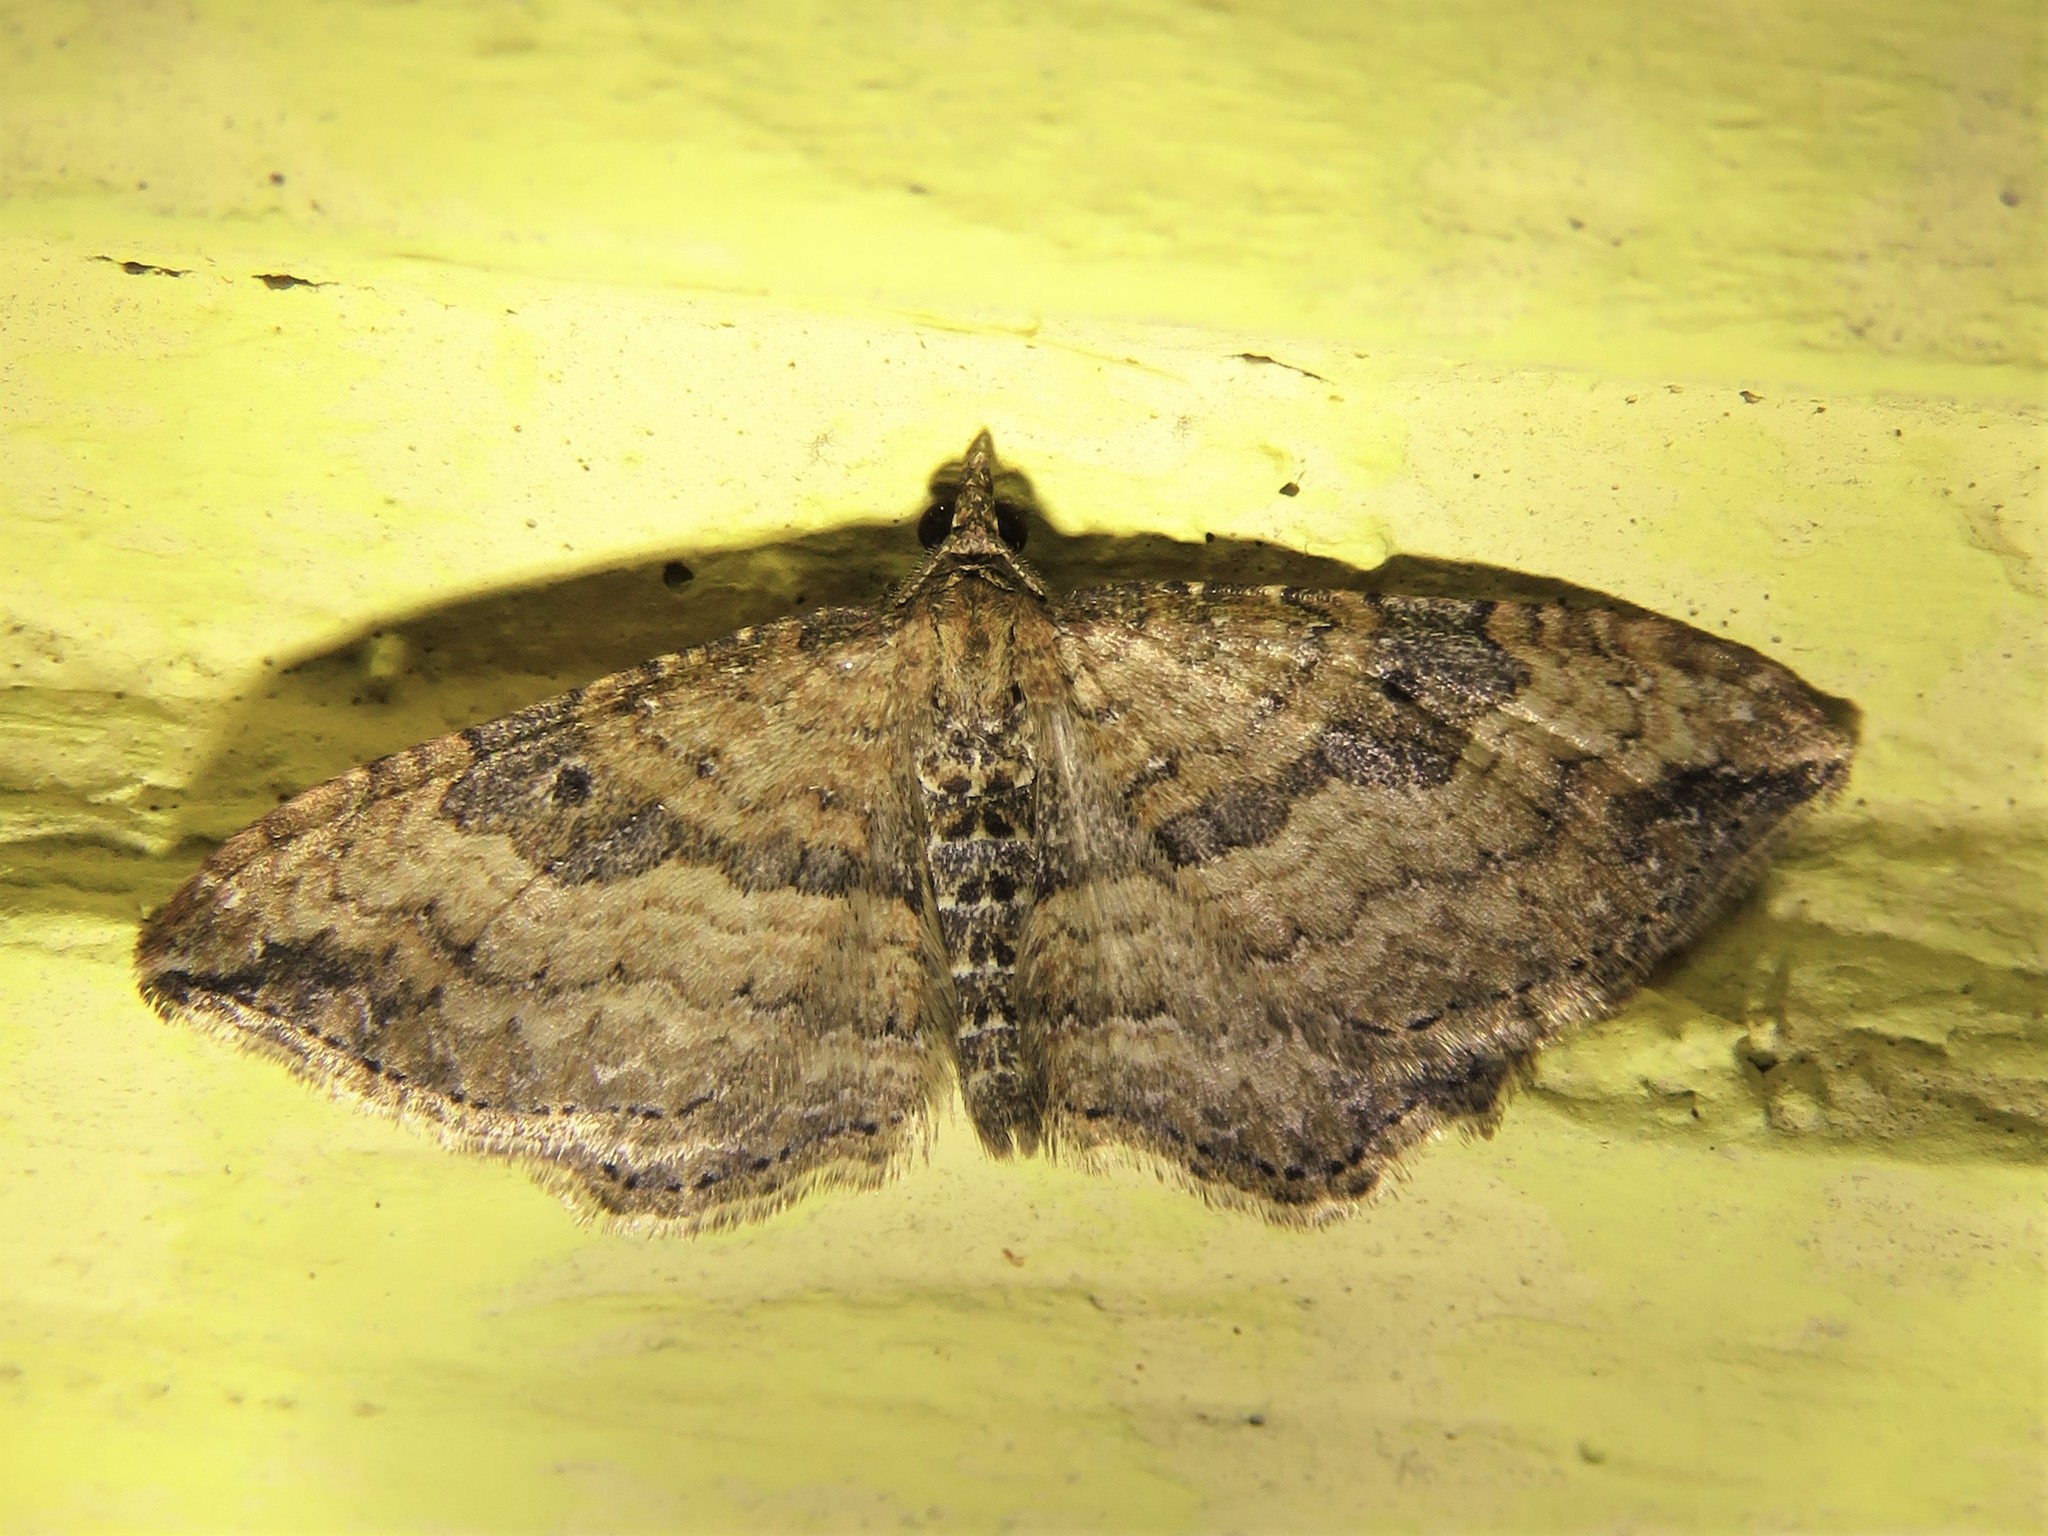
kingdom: Animalia
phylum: Arthropoda
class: Insecta
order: Lepidoptera
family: Geometridae
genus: Orthonama
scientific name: Orthonama obstipata
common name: The gem
